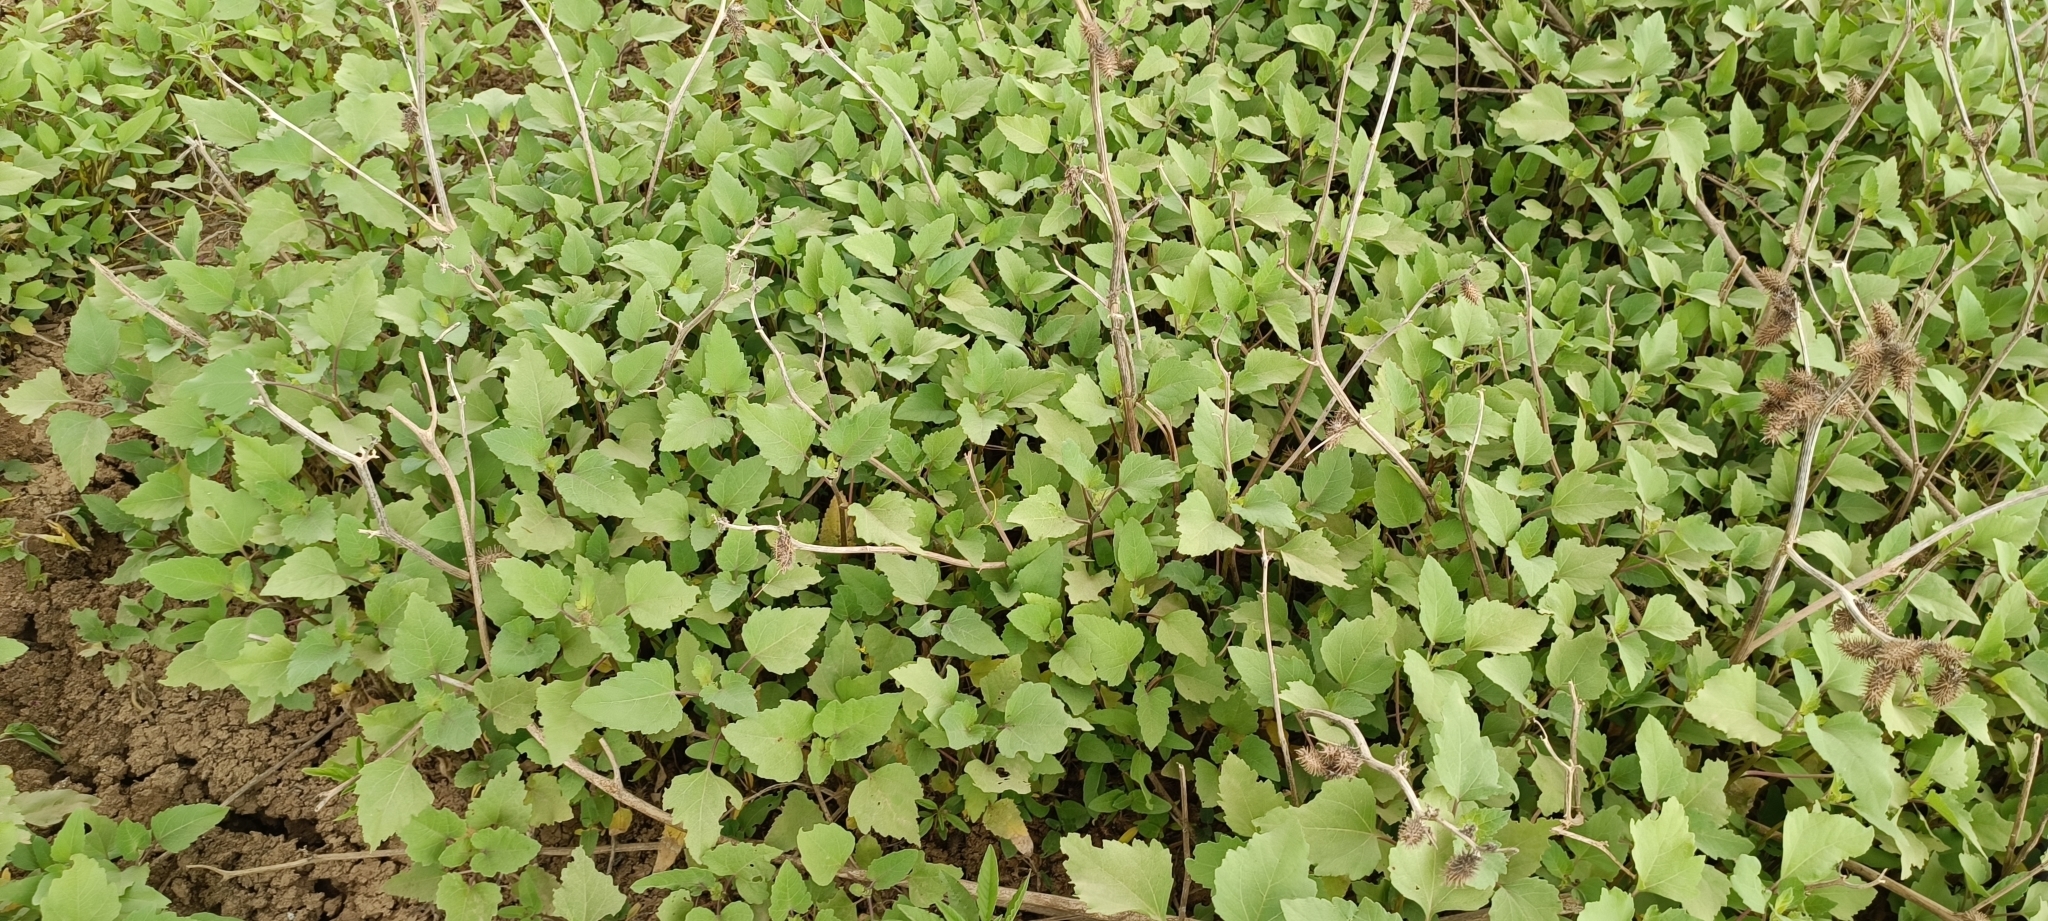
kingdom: Plantae
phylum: Tracheophyta
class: Magnoliopsida
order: Asterales
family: Asteraceae
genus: Xanthium
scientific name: Xanthium strumarium
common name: Rough cocklebur
